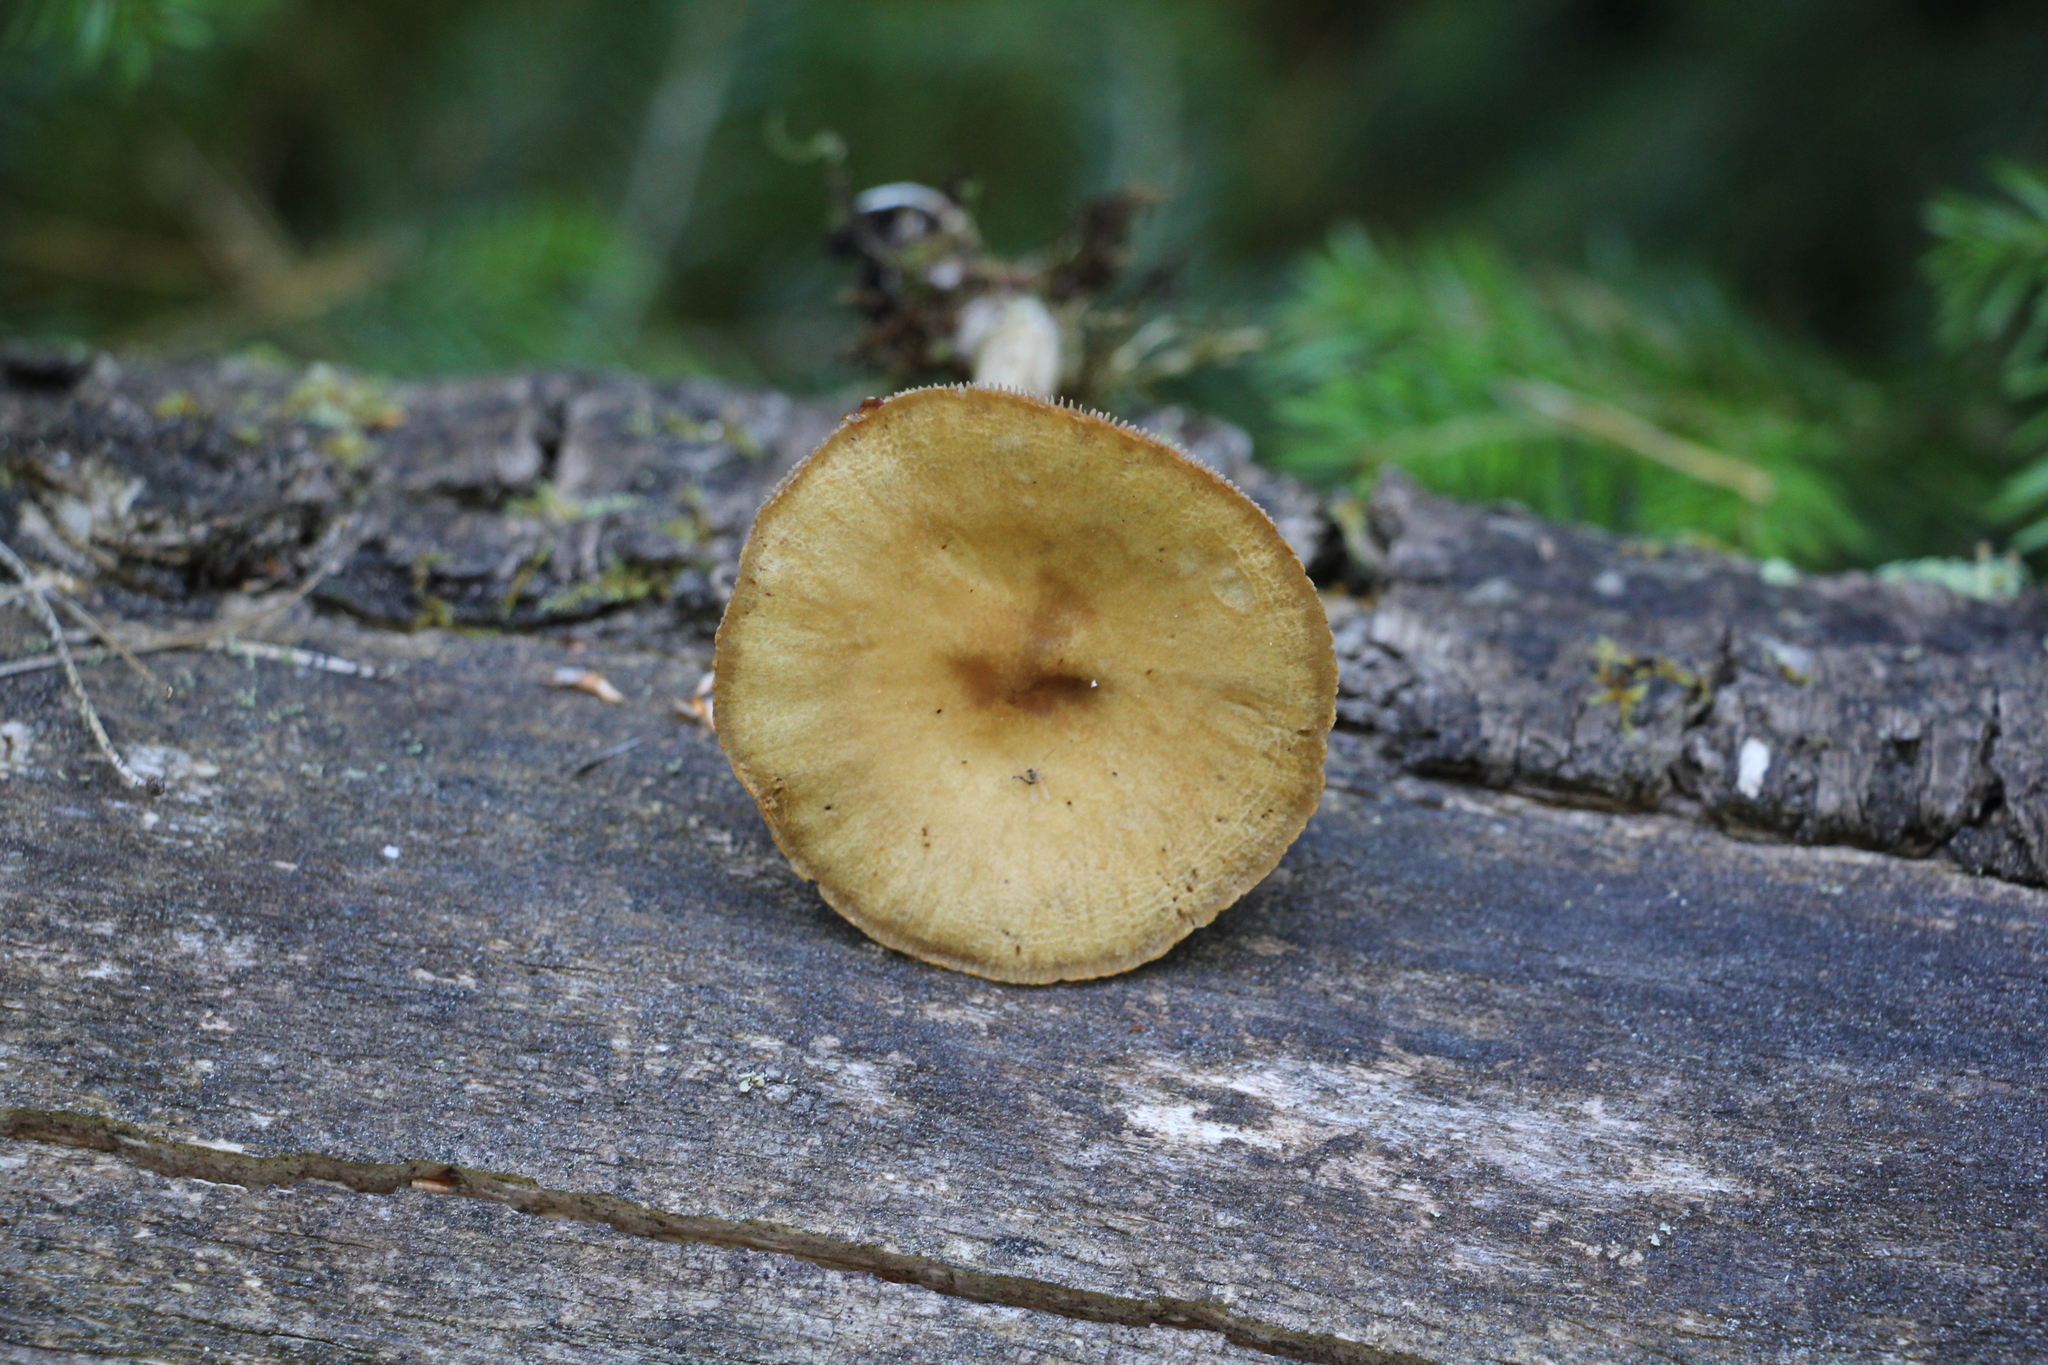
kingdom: Fungi
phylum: Basidiomycota
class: Agaricomycetes
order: Agaricales
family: Strophariaceae
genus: Agrocybe
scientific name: Agrocybe praecox
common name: Spring fieldcap
